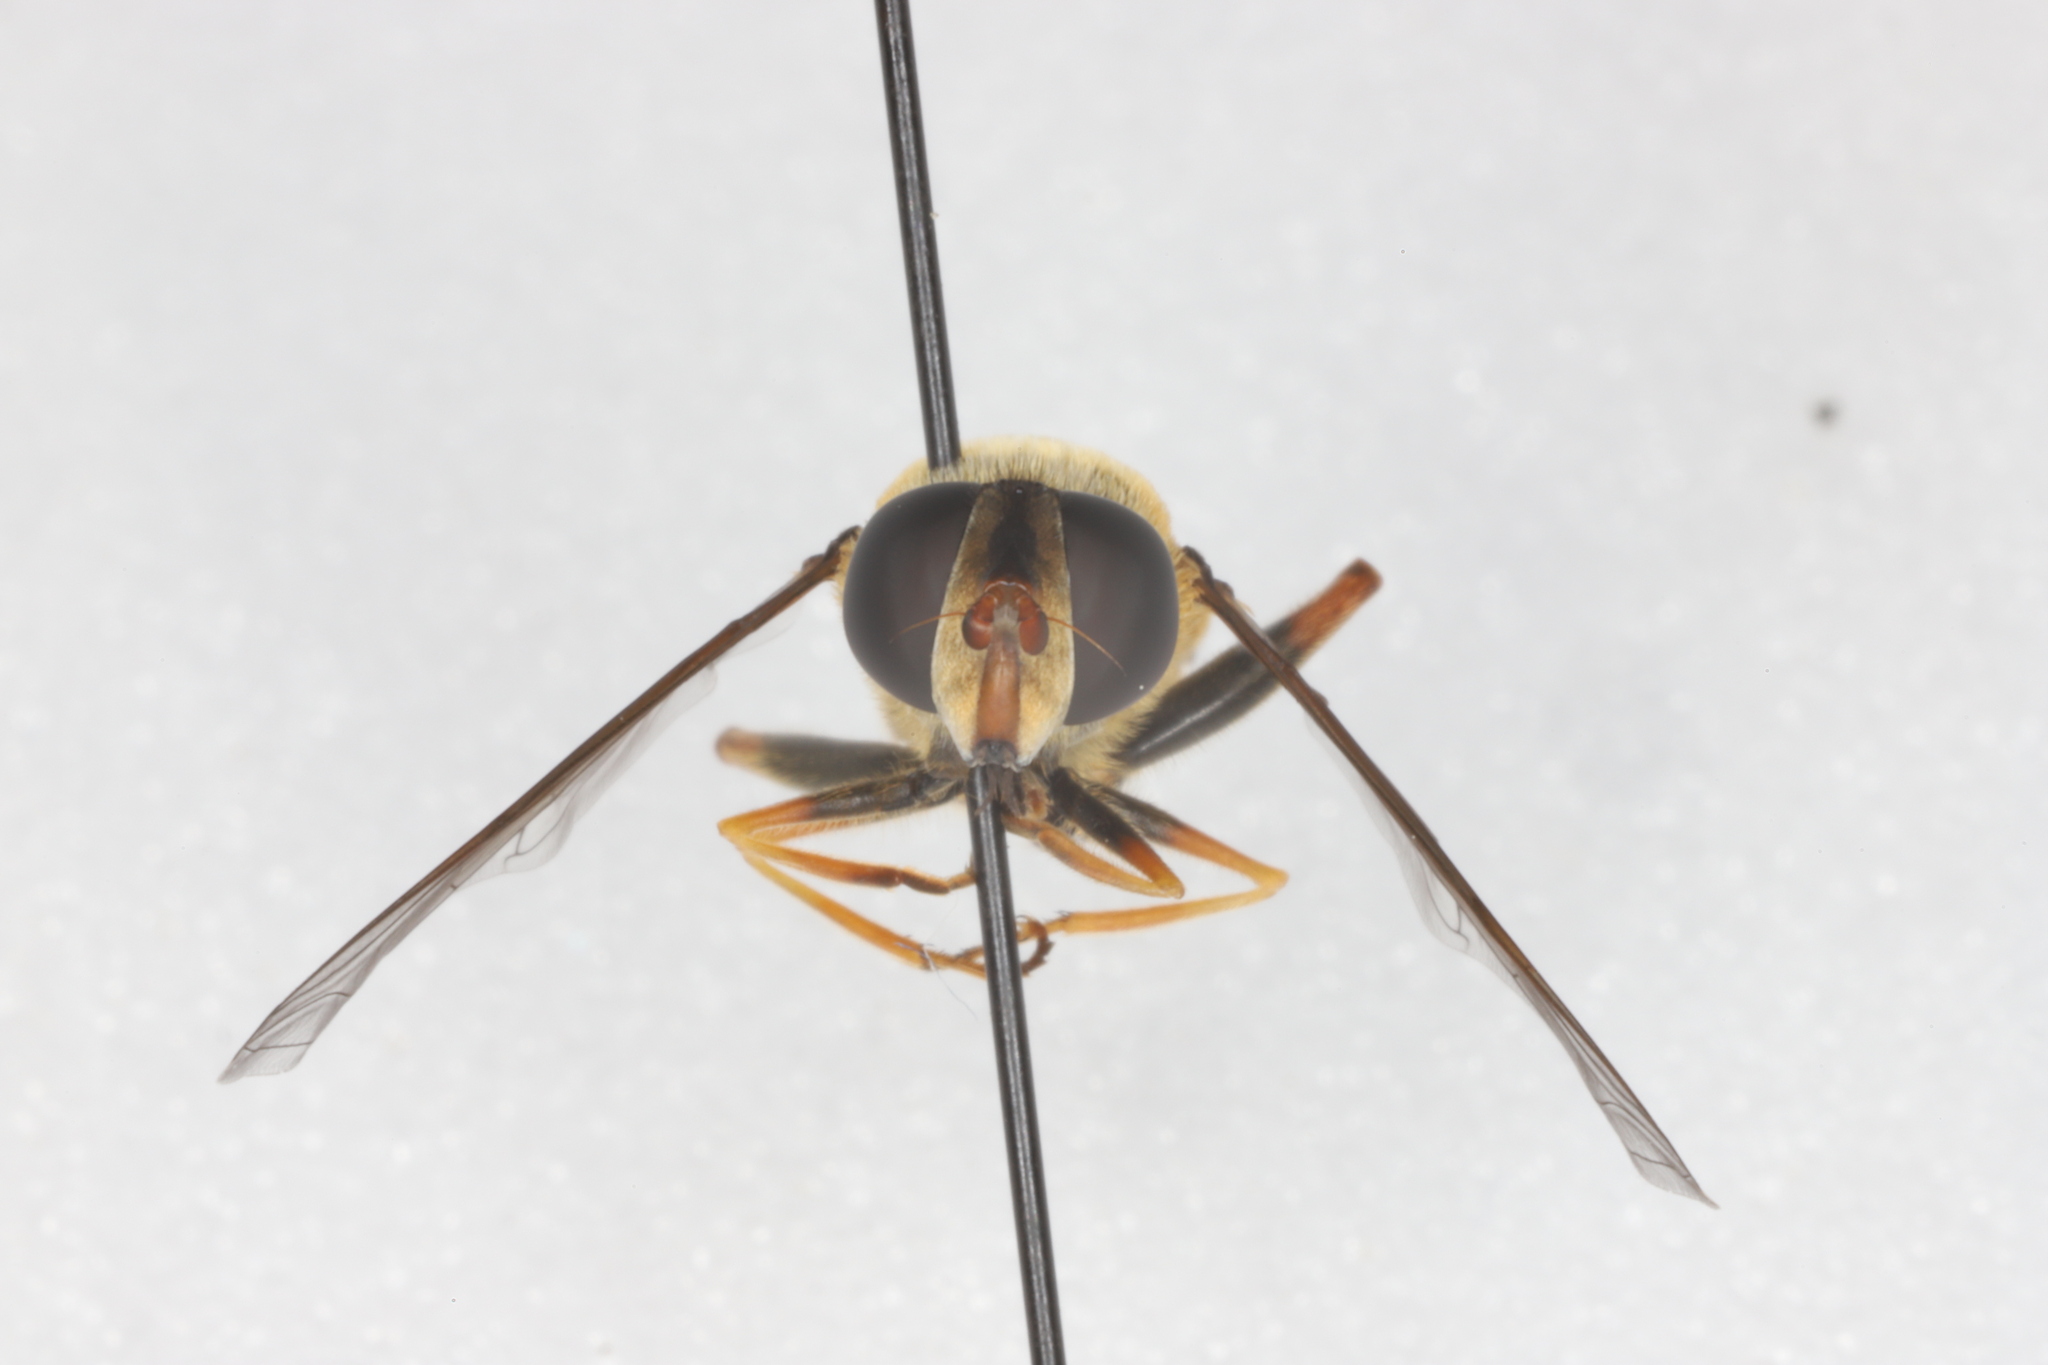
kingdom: Animalia
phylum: Arthropoda
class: Insecta
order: Diptera
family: Syrphidae
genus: Helophilus
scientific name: Helophilus fasciatus
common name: Narrow-headed marsh fly
